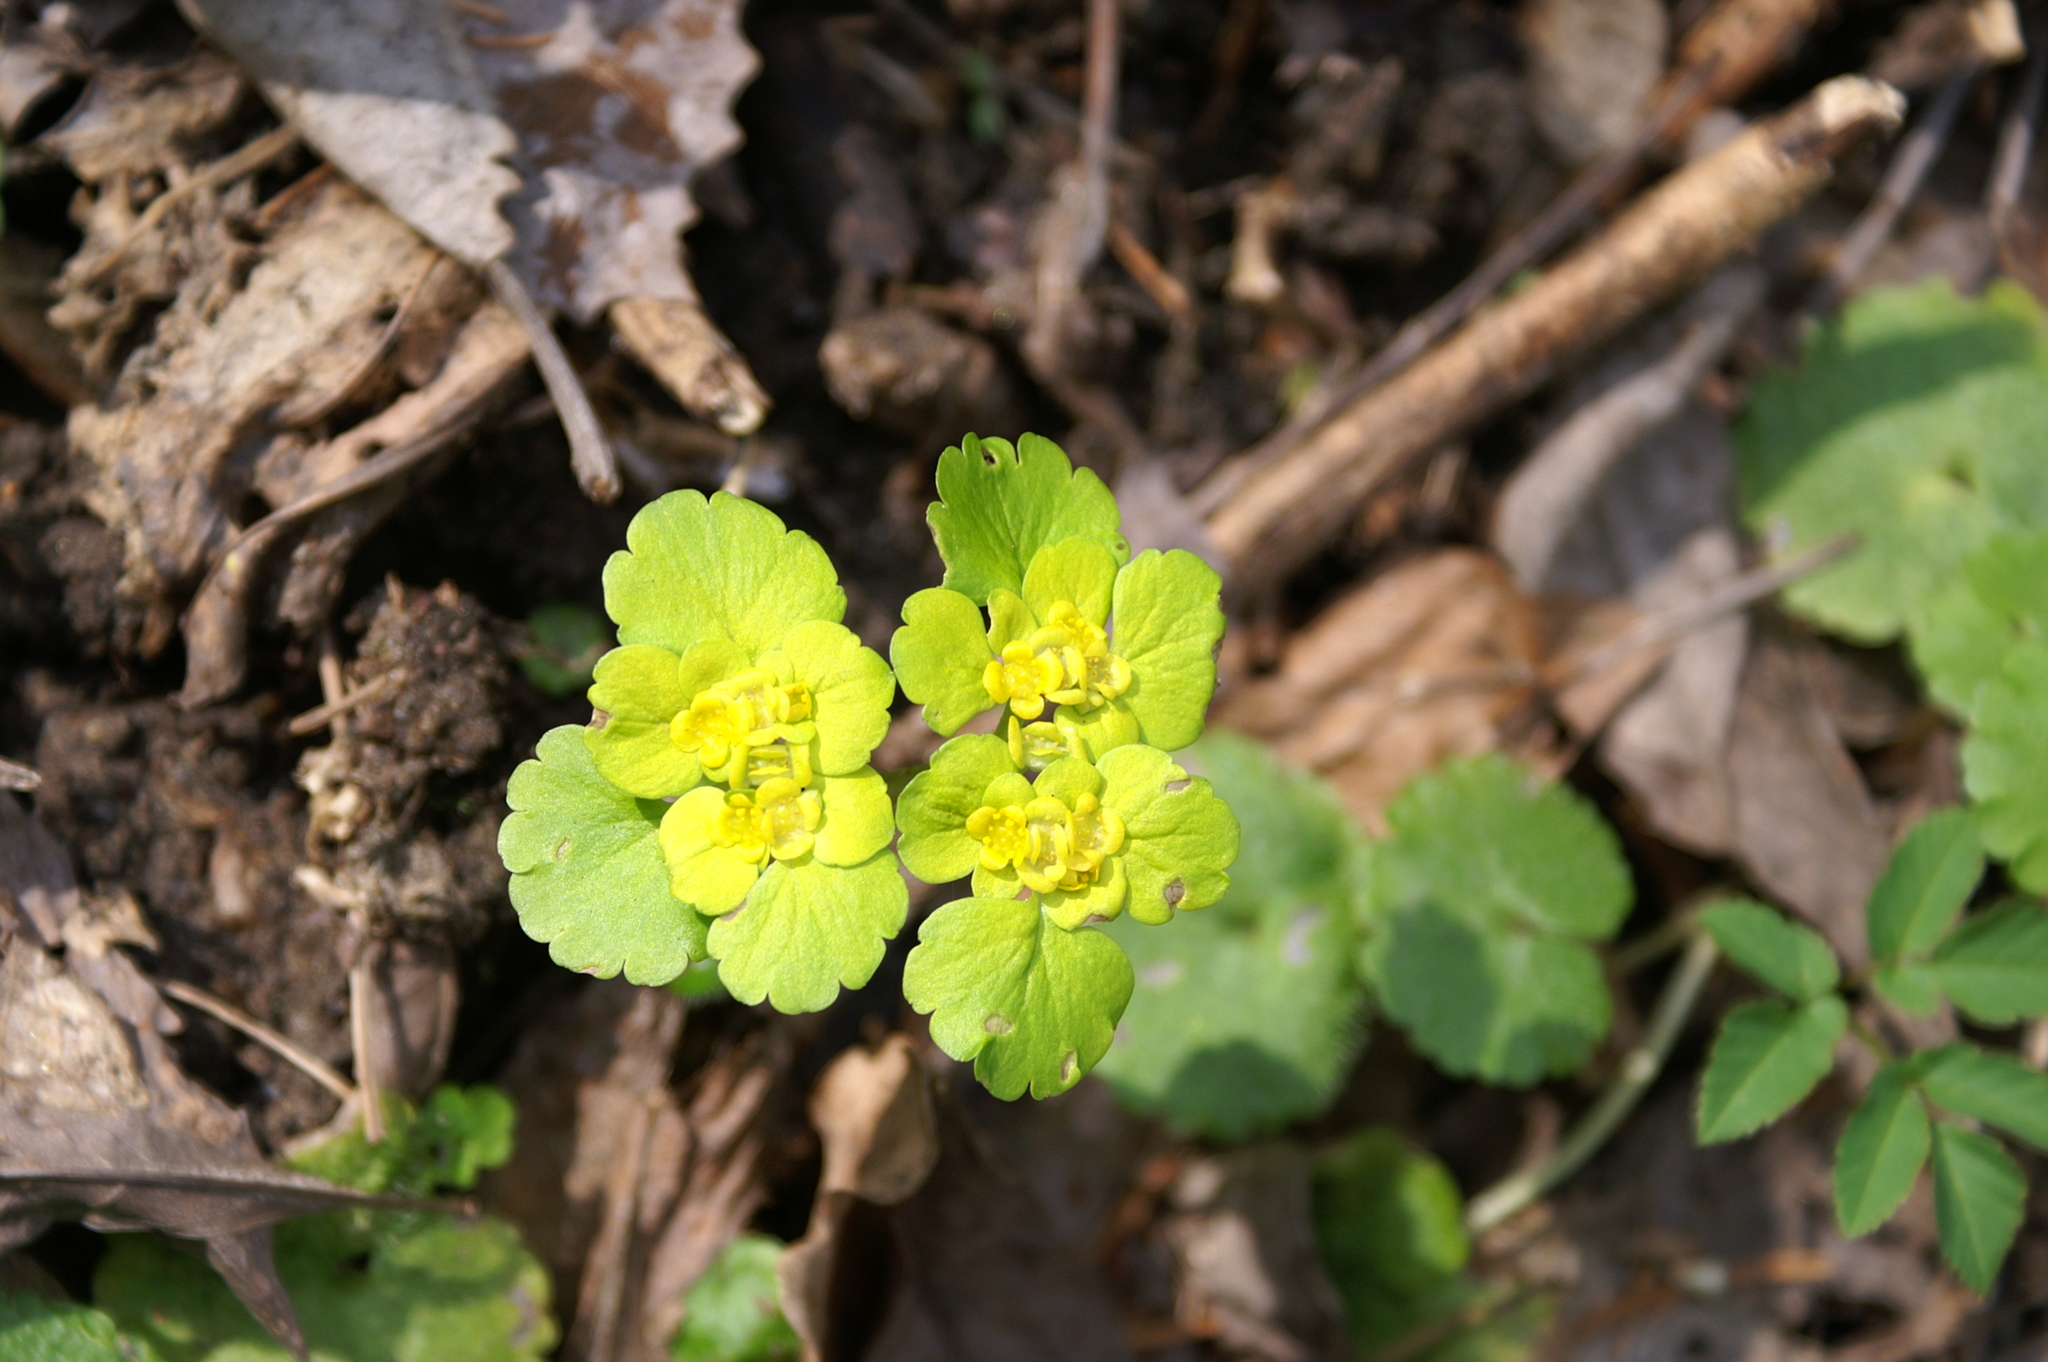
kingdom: Plantae
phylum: Tracheophyta
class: Magnoliopsida
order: Saxifragales
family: Saxifragaceae
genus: Chrysosplenium
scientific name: Chrysosplenium alternifolium
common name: Alternate-leaved golden-saxifrage
